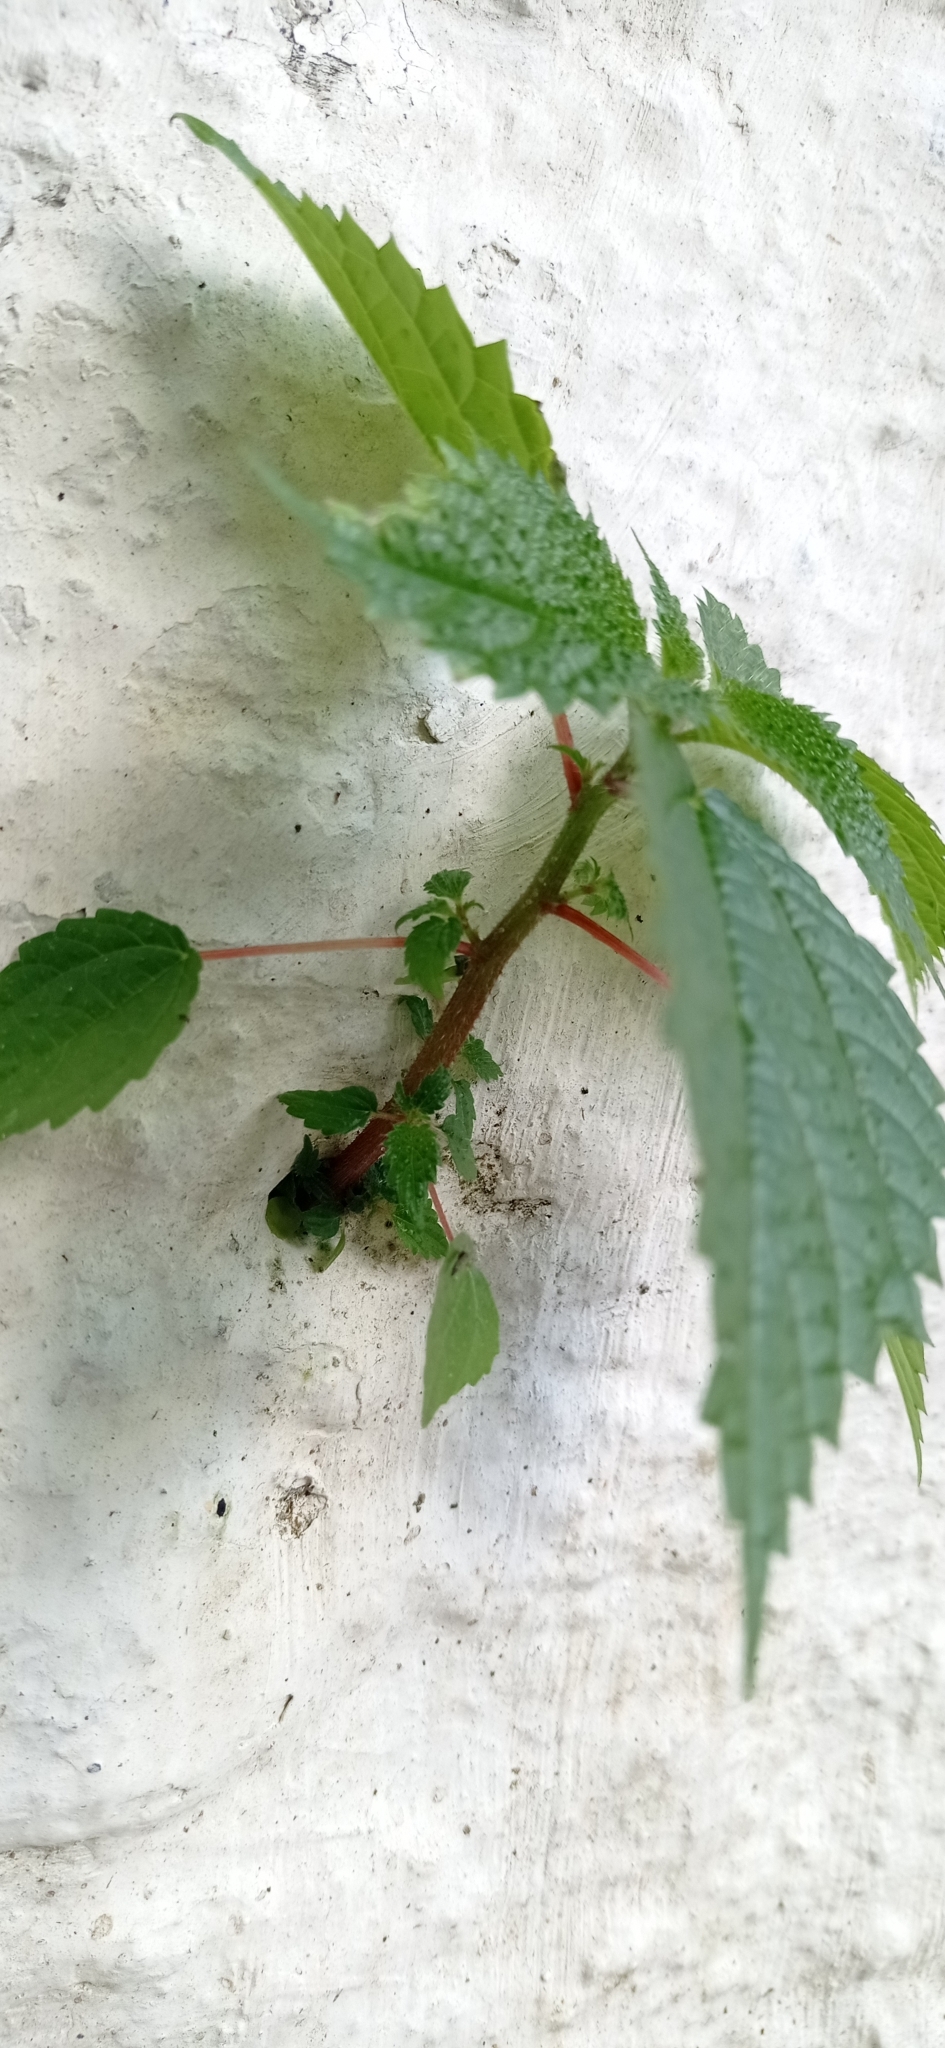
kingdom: Plantae
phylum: Tracheophyta
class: Magnoliopsida
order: Rosales
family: Urticaceae
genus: Laportea
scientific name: Laportea aestuans
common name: West indian woodnettle
